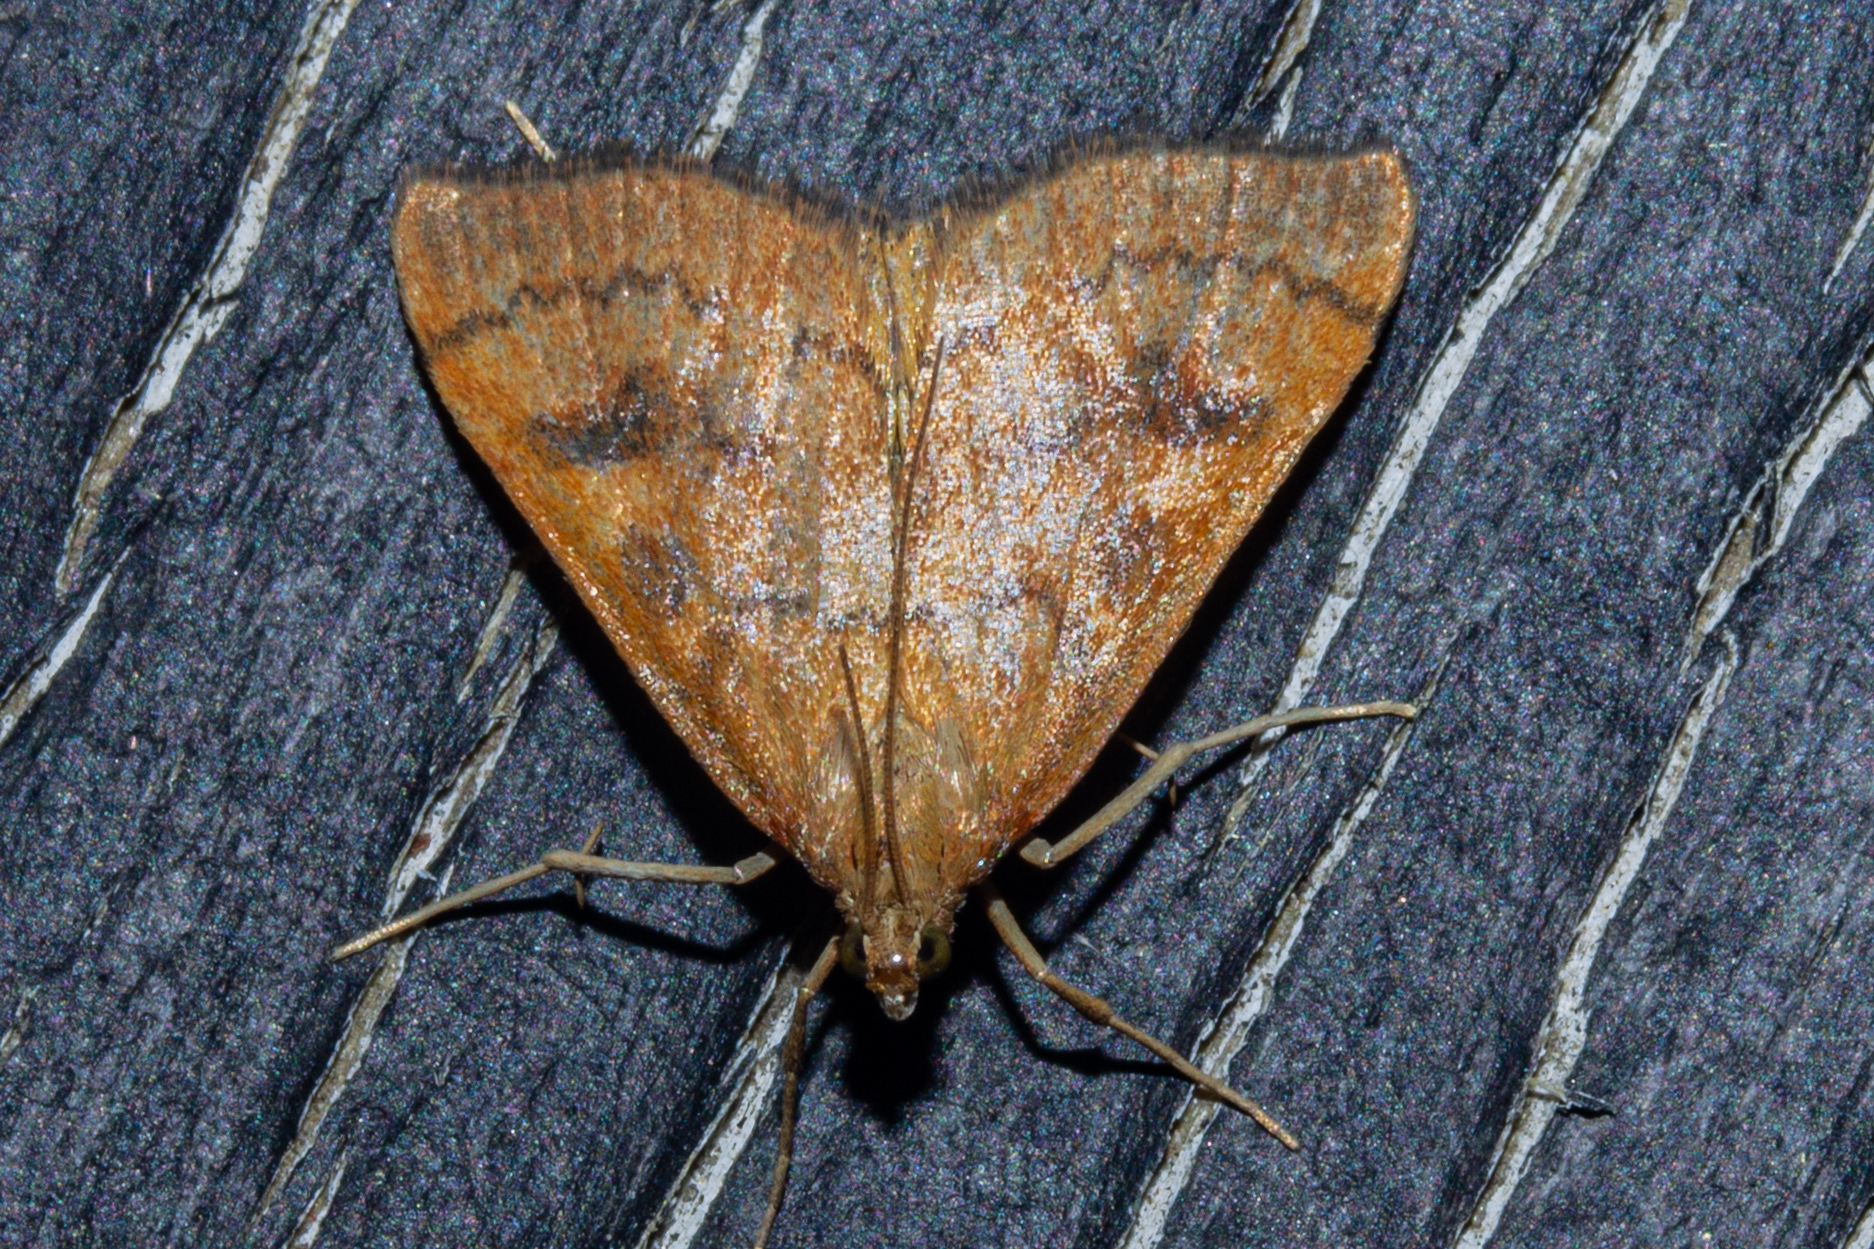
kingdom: Animalia
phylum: Arthropoda
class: Insecta
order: Lepidoptera
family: Crambidae
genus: Udea
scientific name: Udea Mnesictena flavidalis
